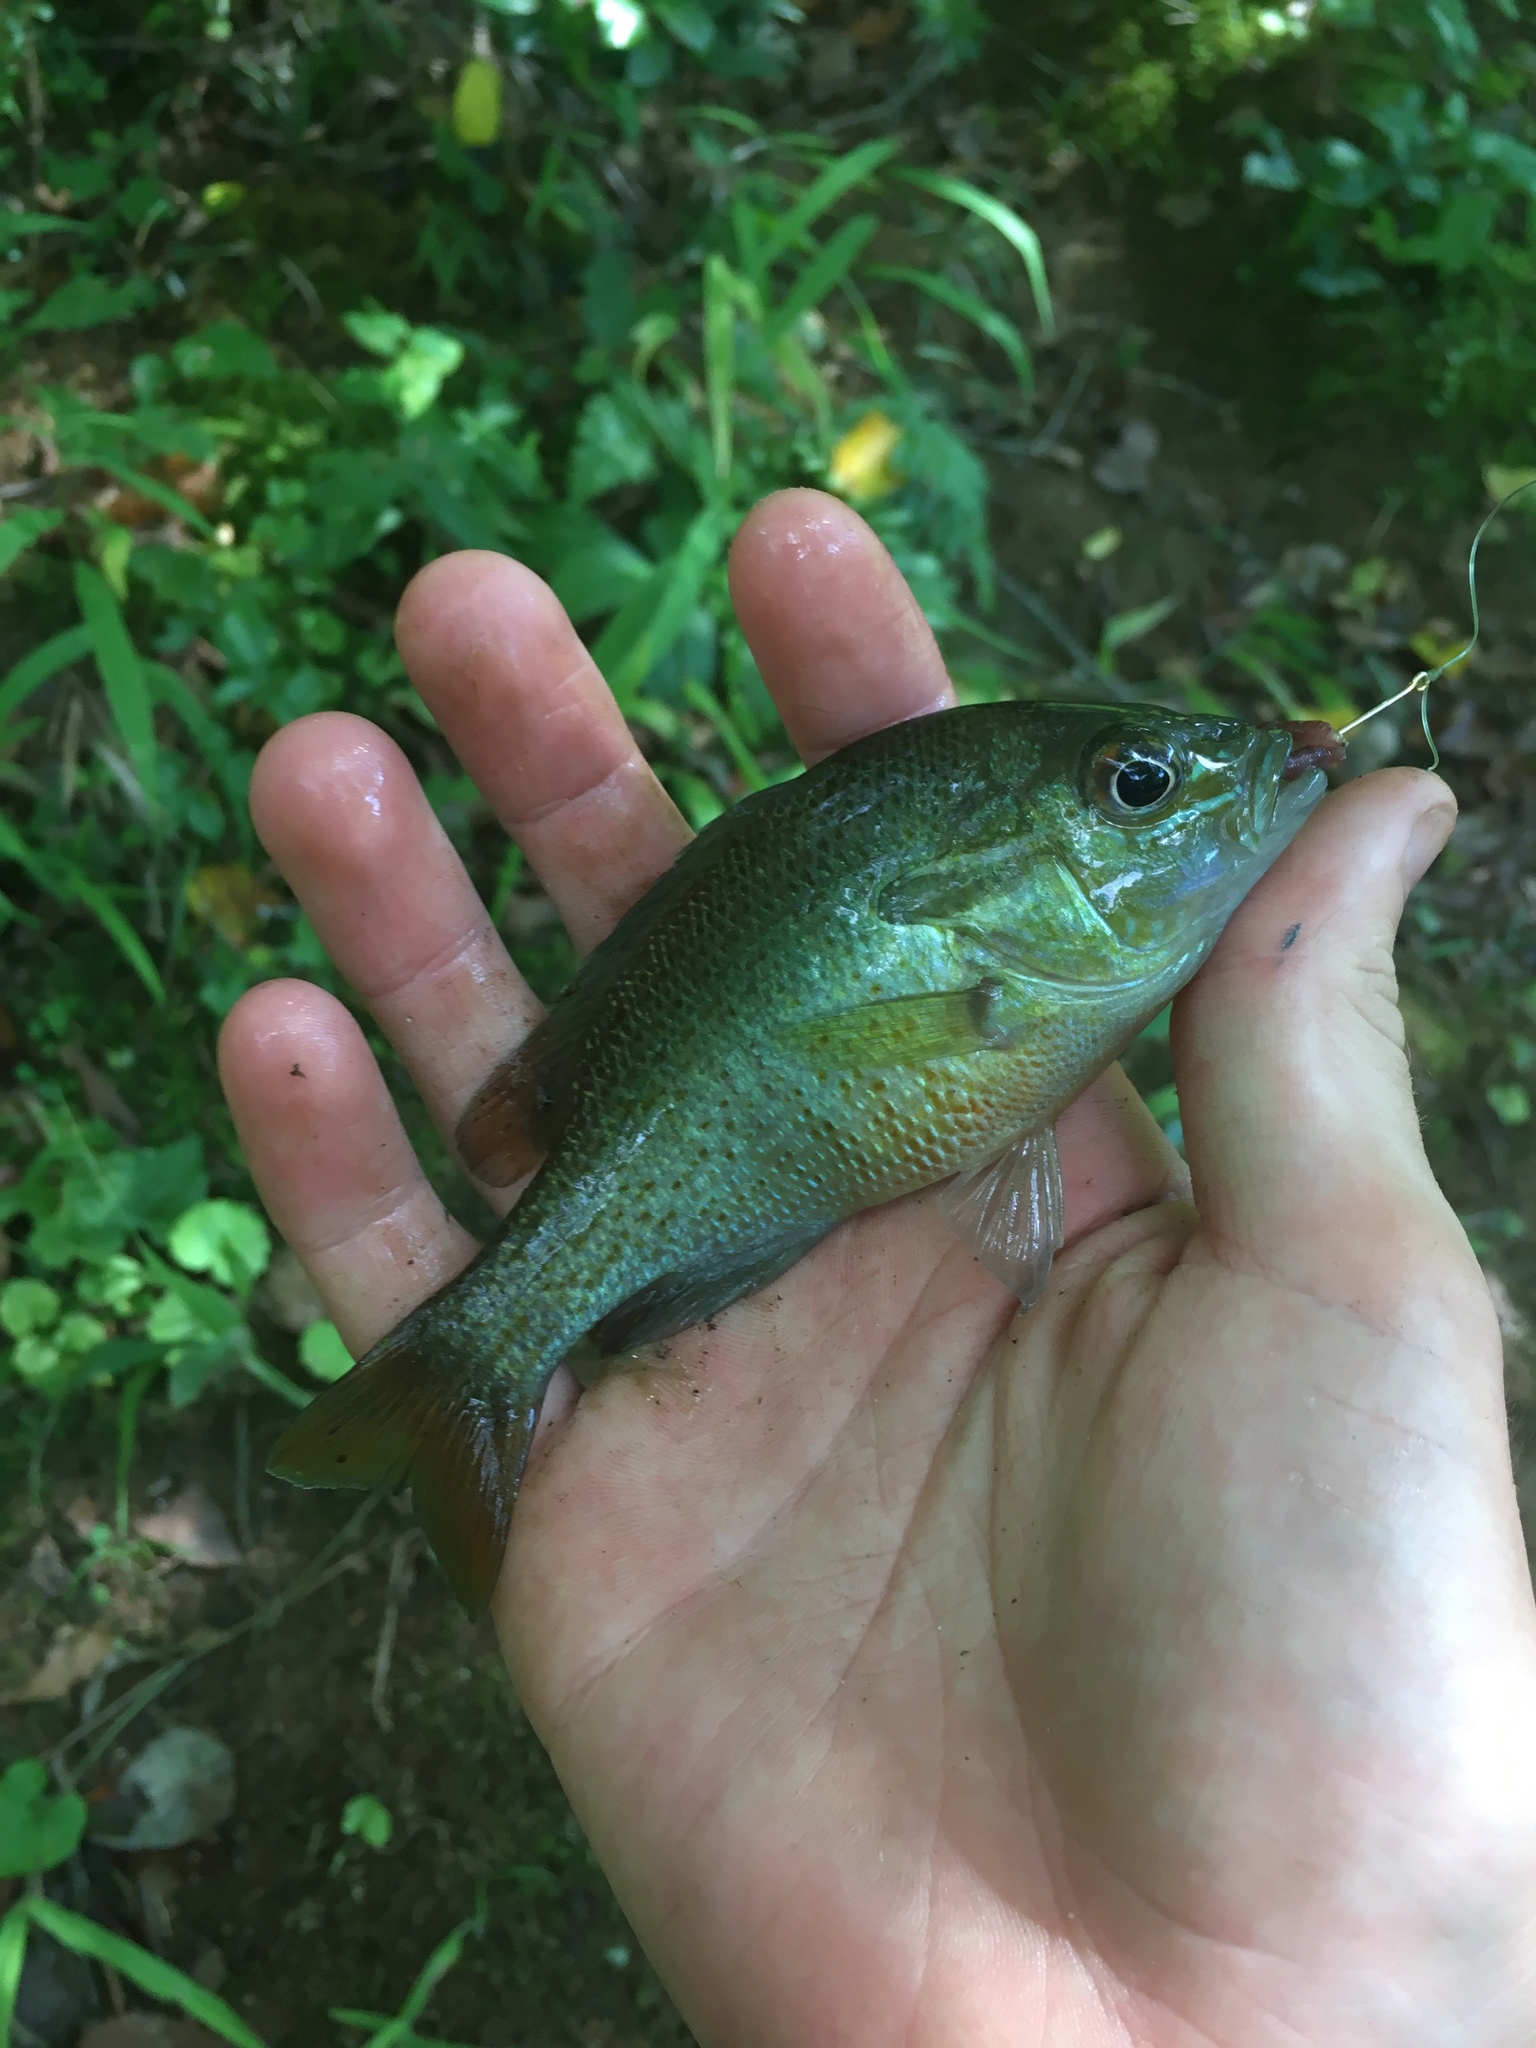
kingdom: Animalia
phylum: Chordata
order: Perciformes
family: Centrarchidae
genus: Lepomis
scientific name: Lepomis auritus
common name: Redbreast sunfish
